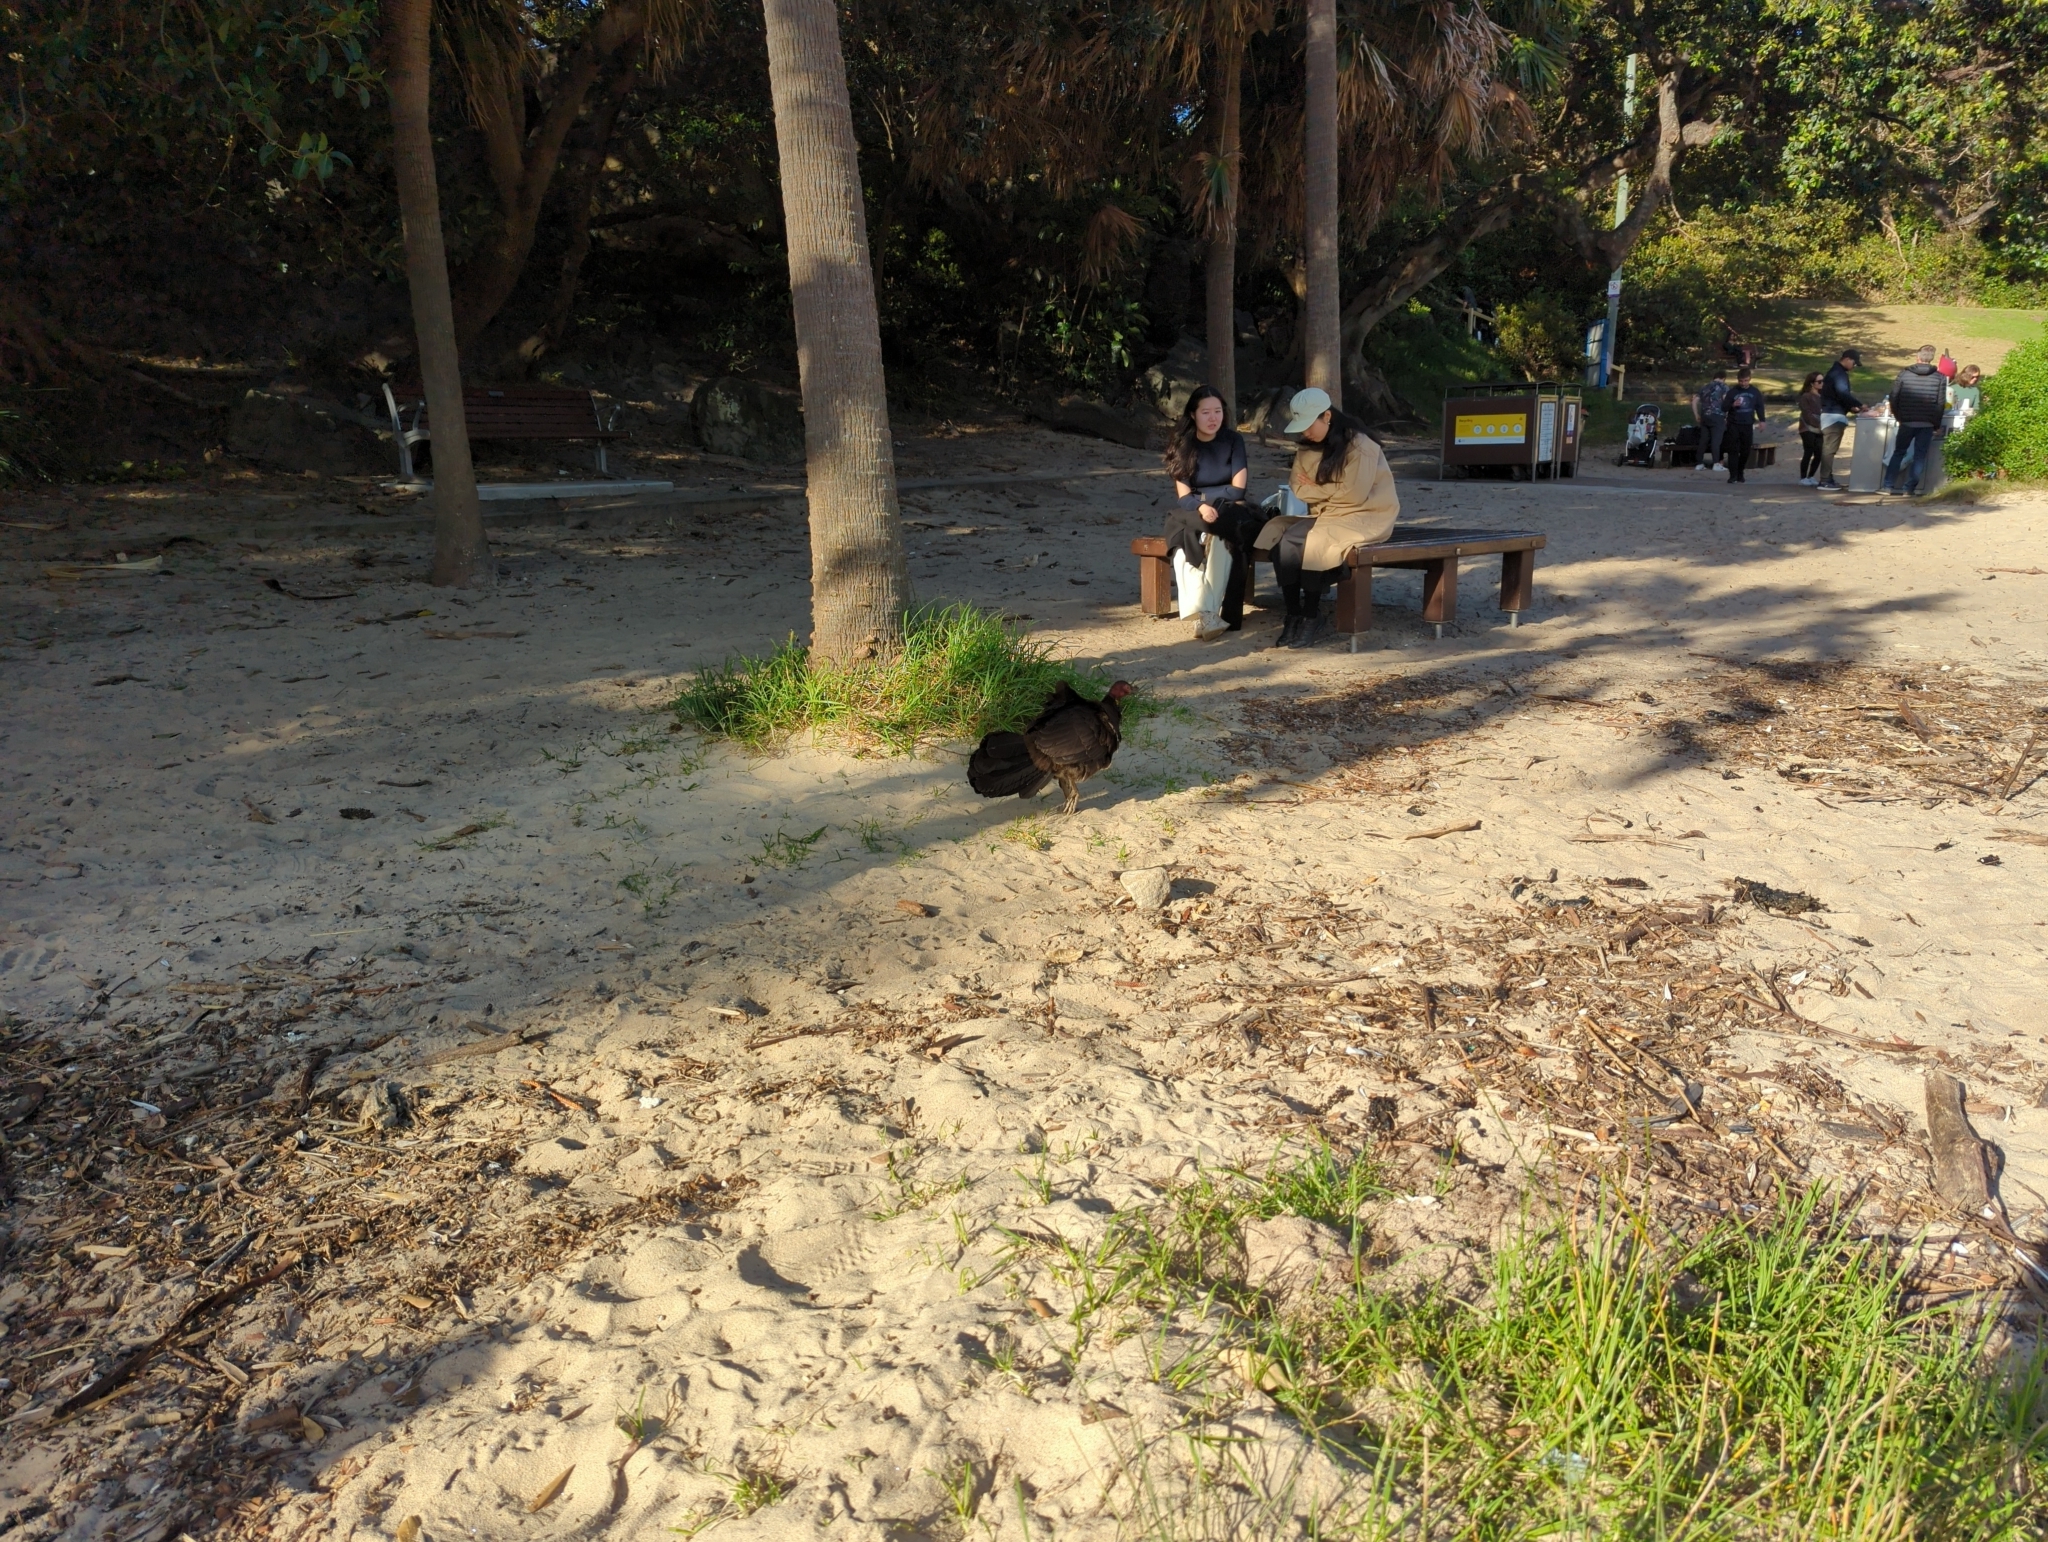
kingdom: Animalia
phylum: Chordata
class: Aves
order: Galliformes
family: Megapodiidae
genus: Alectura
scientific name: Alectura lathami
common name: Australian brushturkey
